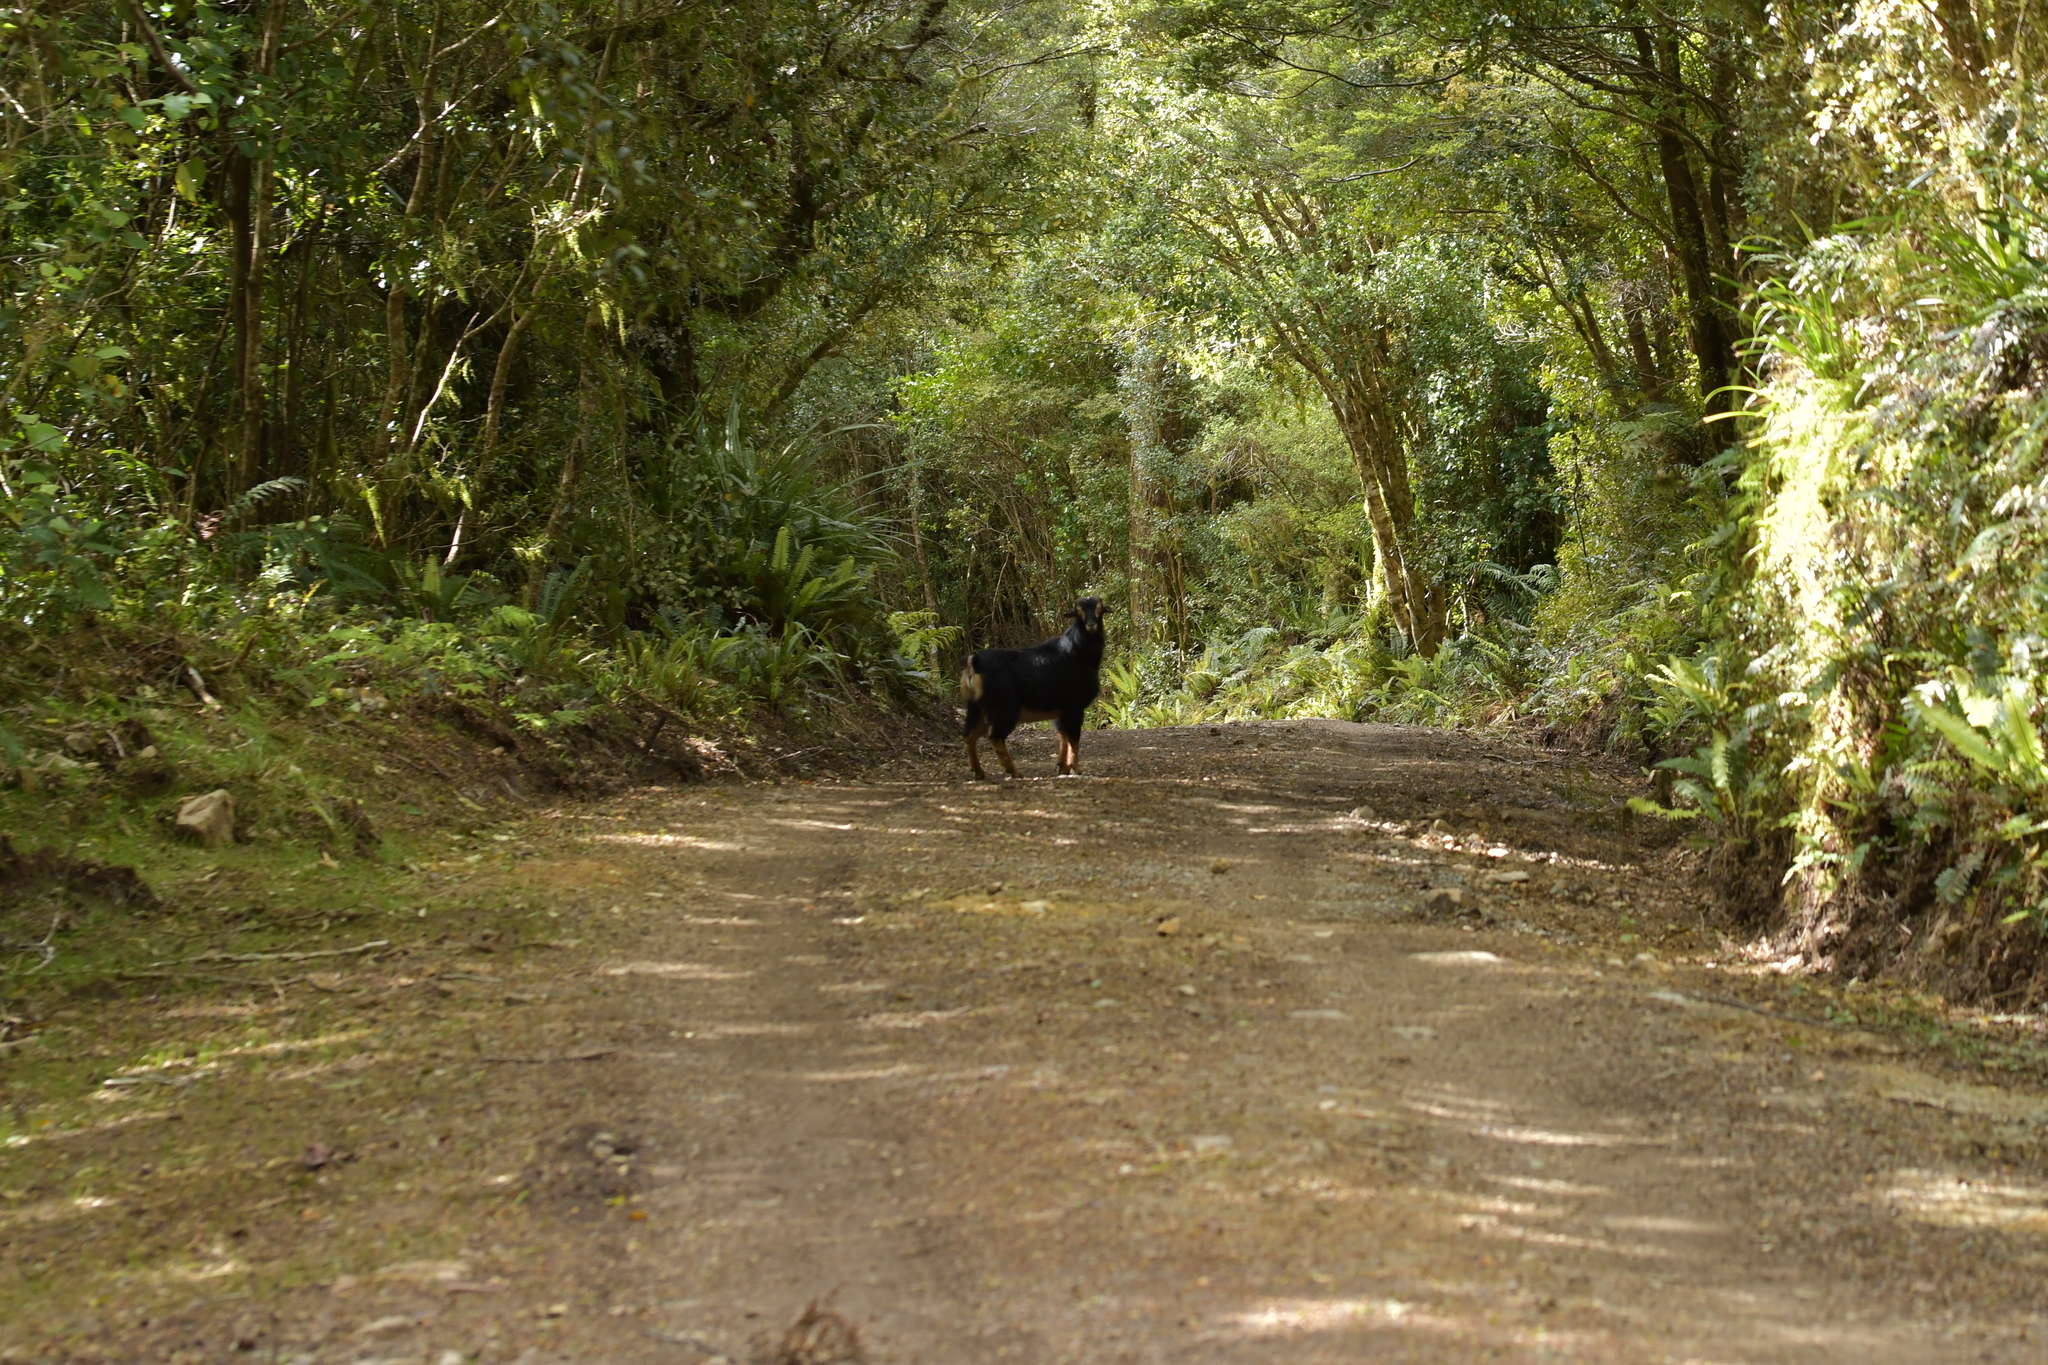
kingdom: Animalia
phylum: Chordata
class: Mammalia
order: Artiodactyla
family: Bovidae
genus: Capra
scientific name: Capra hircus
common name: Domestic goat
